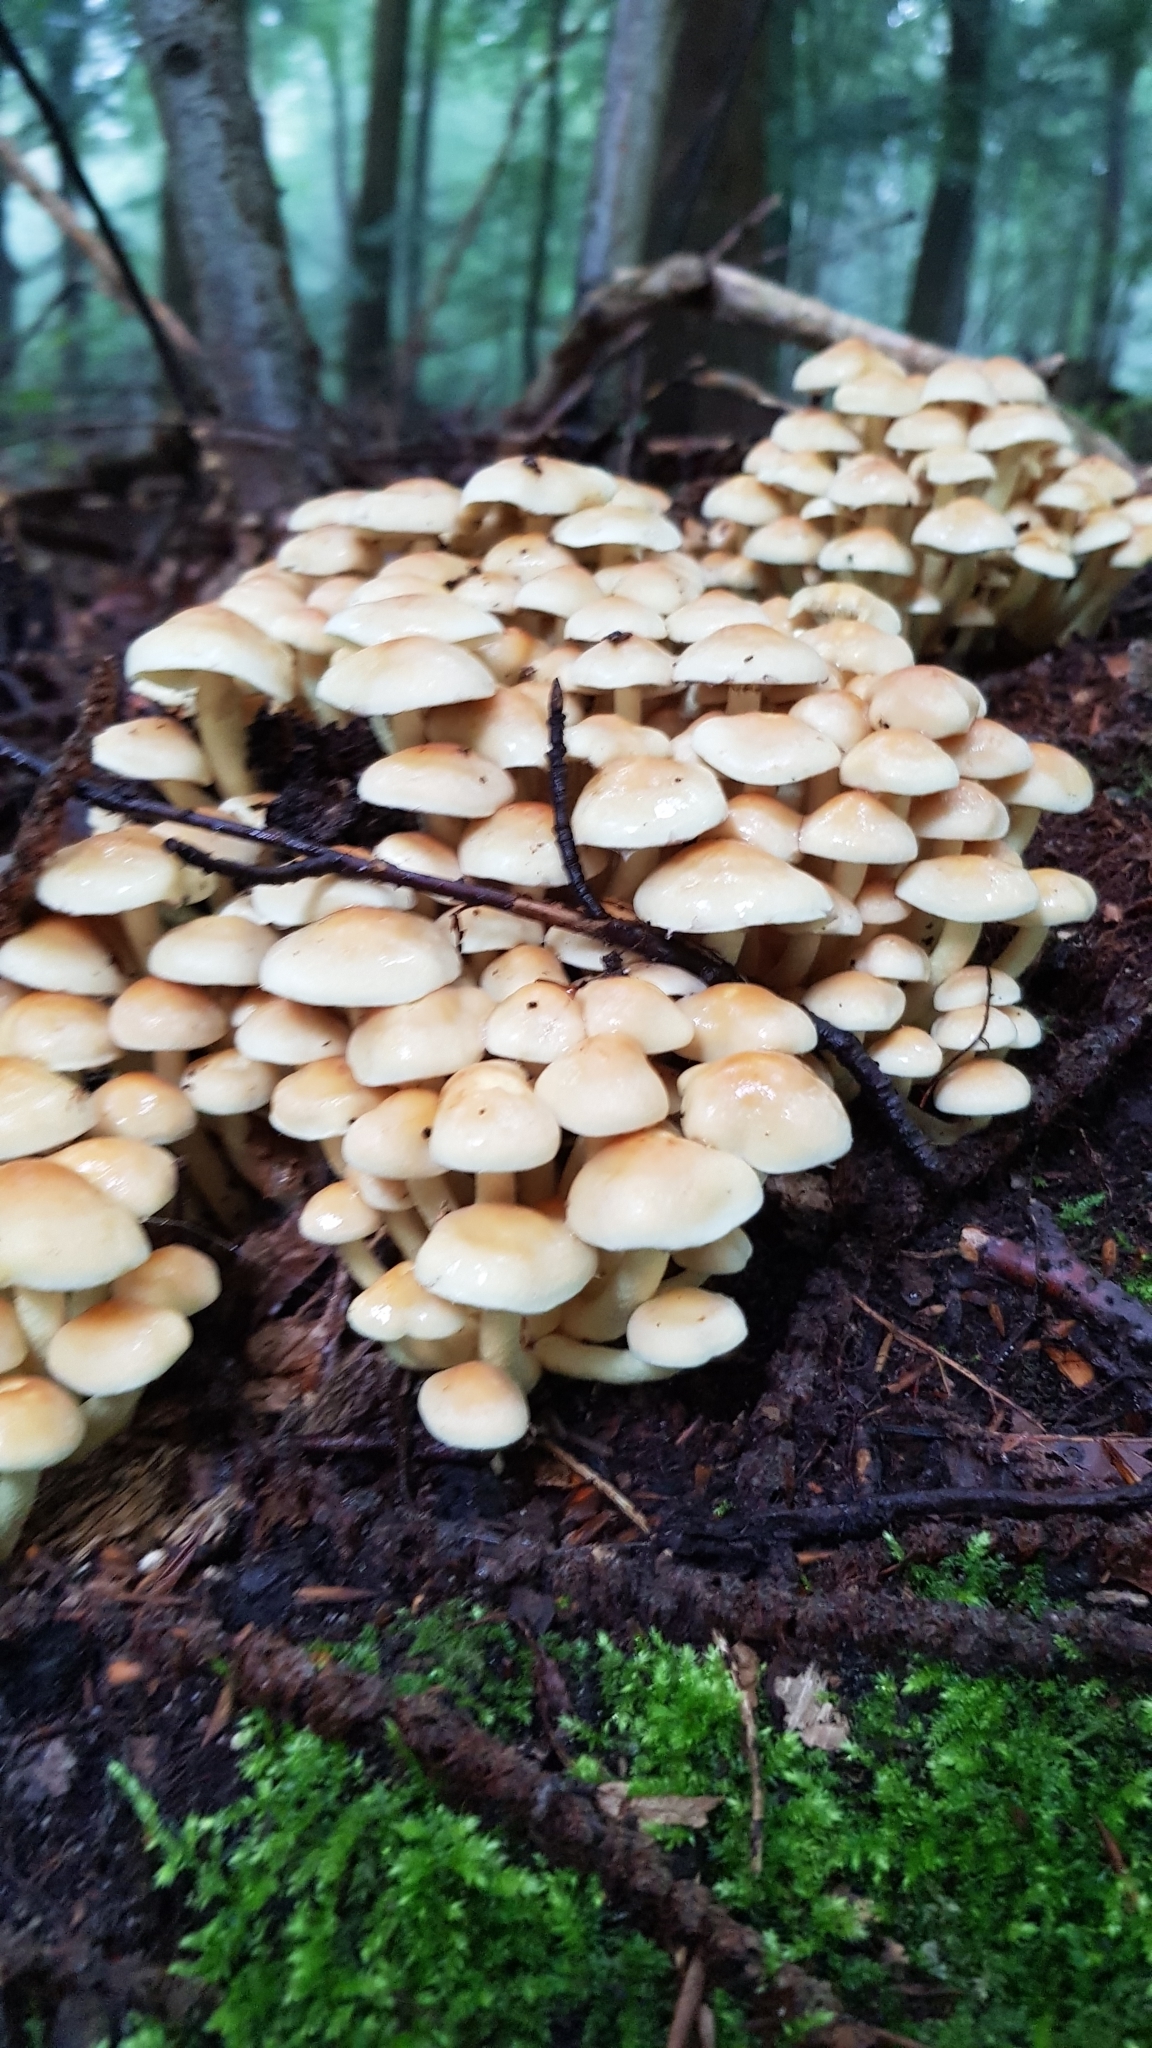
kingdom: Fungi
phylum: Basidiomycota
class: Agaricomycetes
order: Agaricales
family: Strophariaceae
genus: Hypholoma
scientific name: Hypholoma fasciculare
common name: Sulphur tuft
